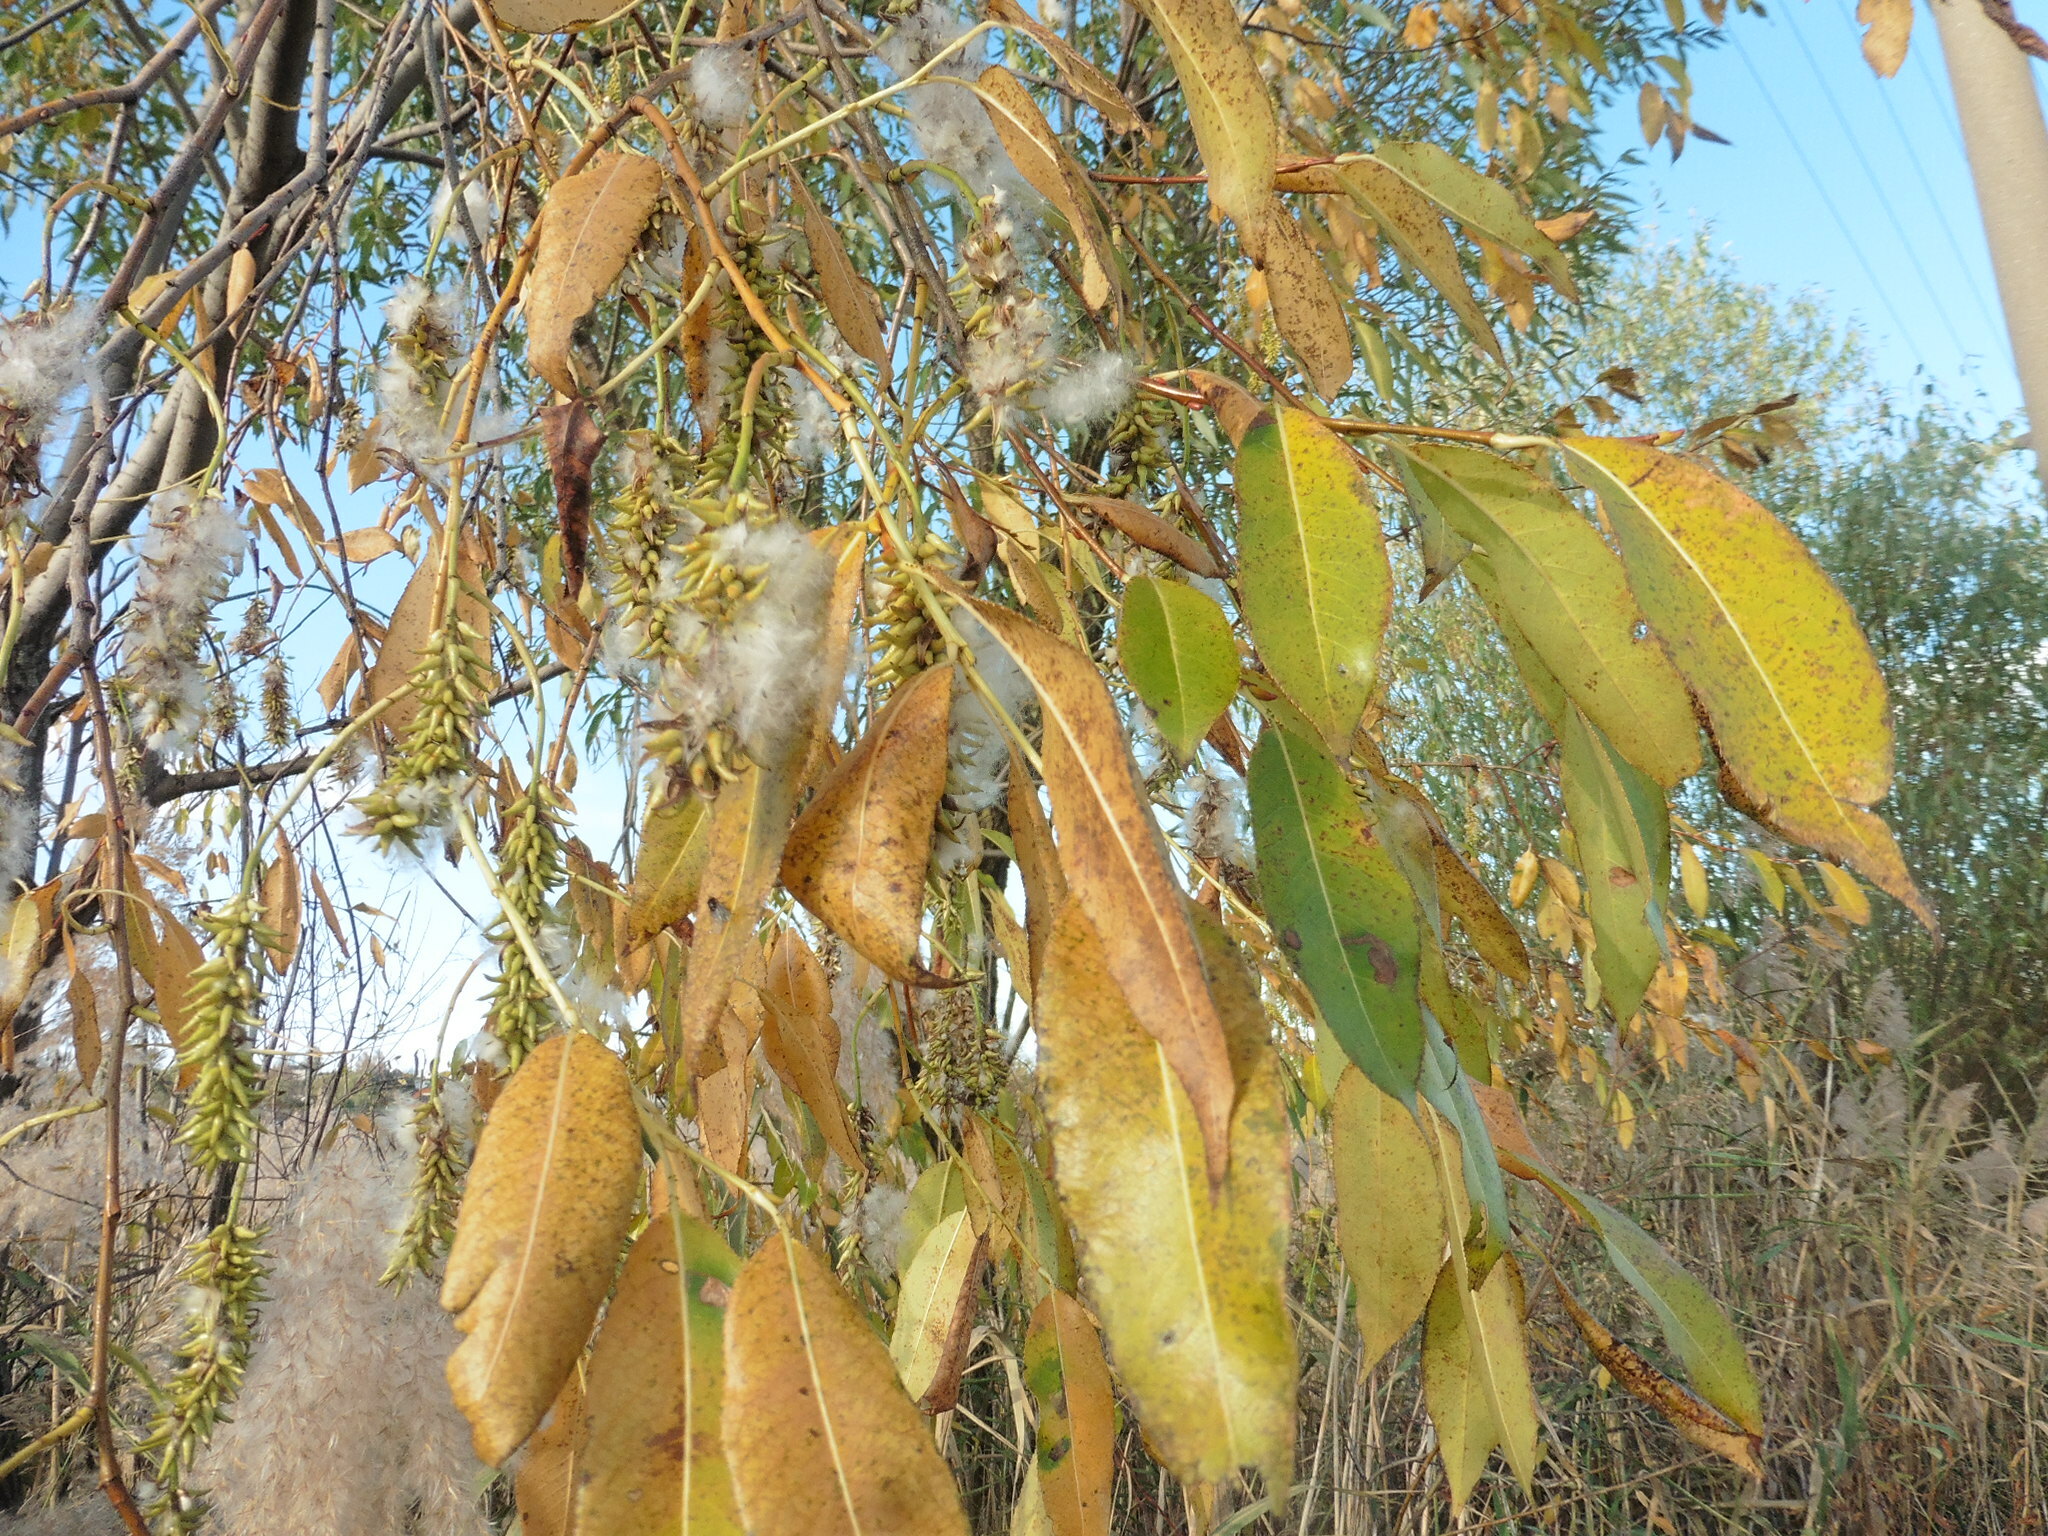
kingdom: Plantae
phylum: Tracheophyta
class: Magnoliopsida
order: Malpighiales
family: Salicaceae
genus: Salix
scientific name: Salix pentandra
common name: Bay willow
